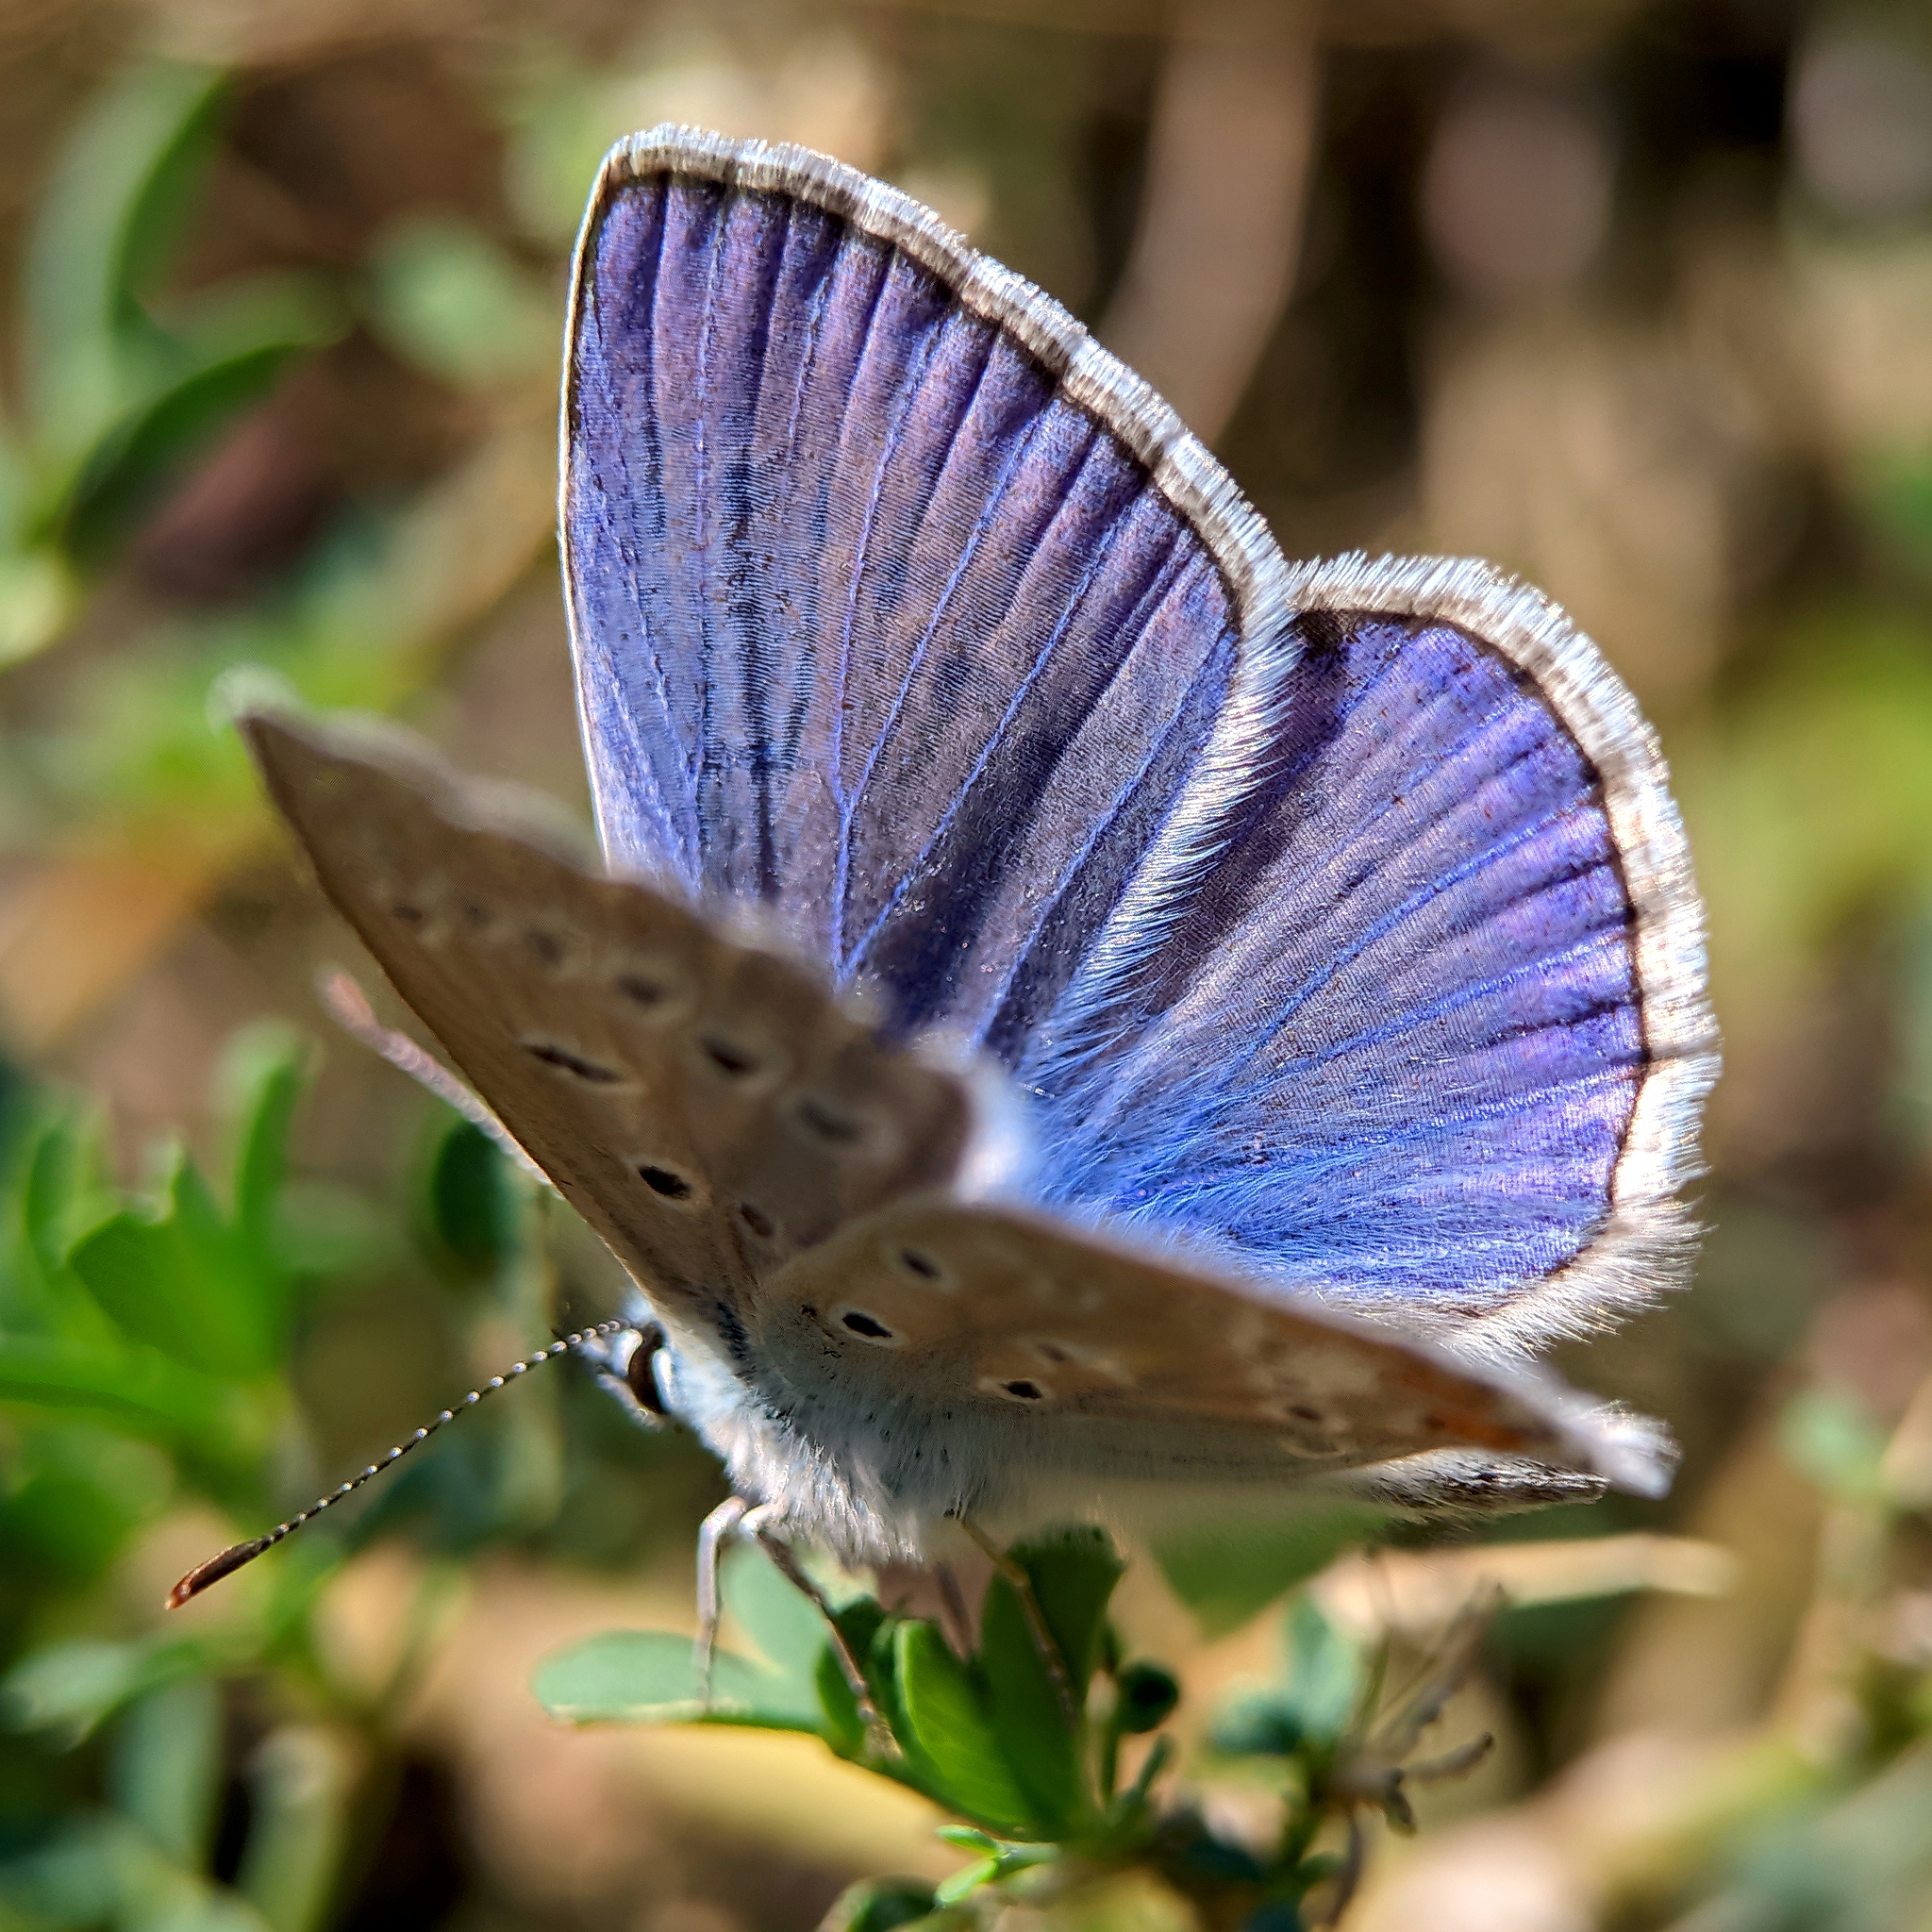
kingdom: Animalia
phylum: Arthropoda
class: Insecta
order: Lepidoptera
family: Lycaenidae
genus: Polyommatus
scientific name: Polyommatus icarus
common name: Common blue
